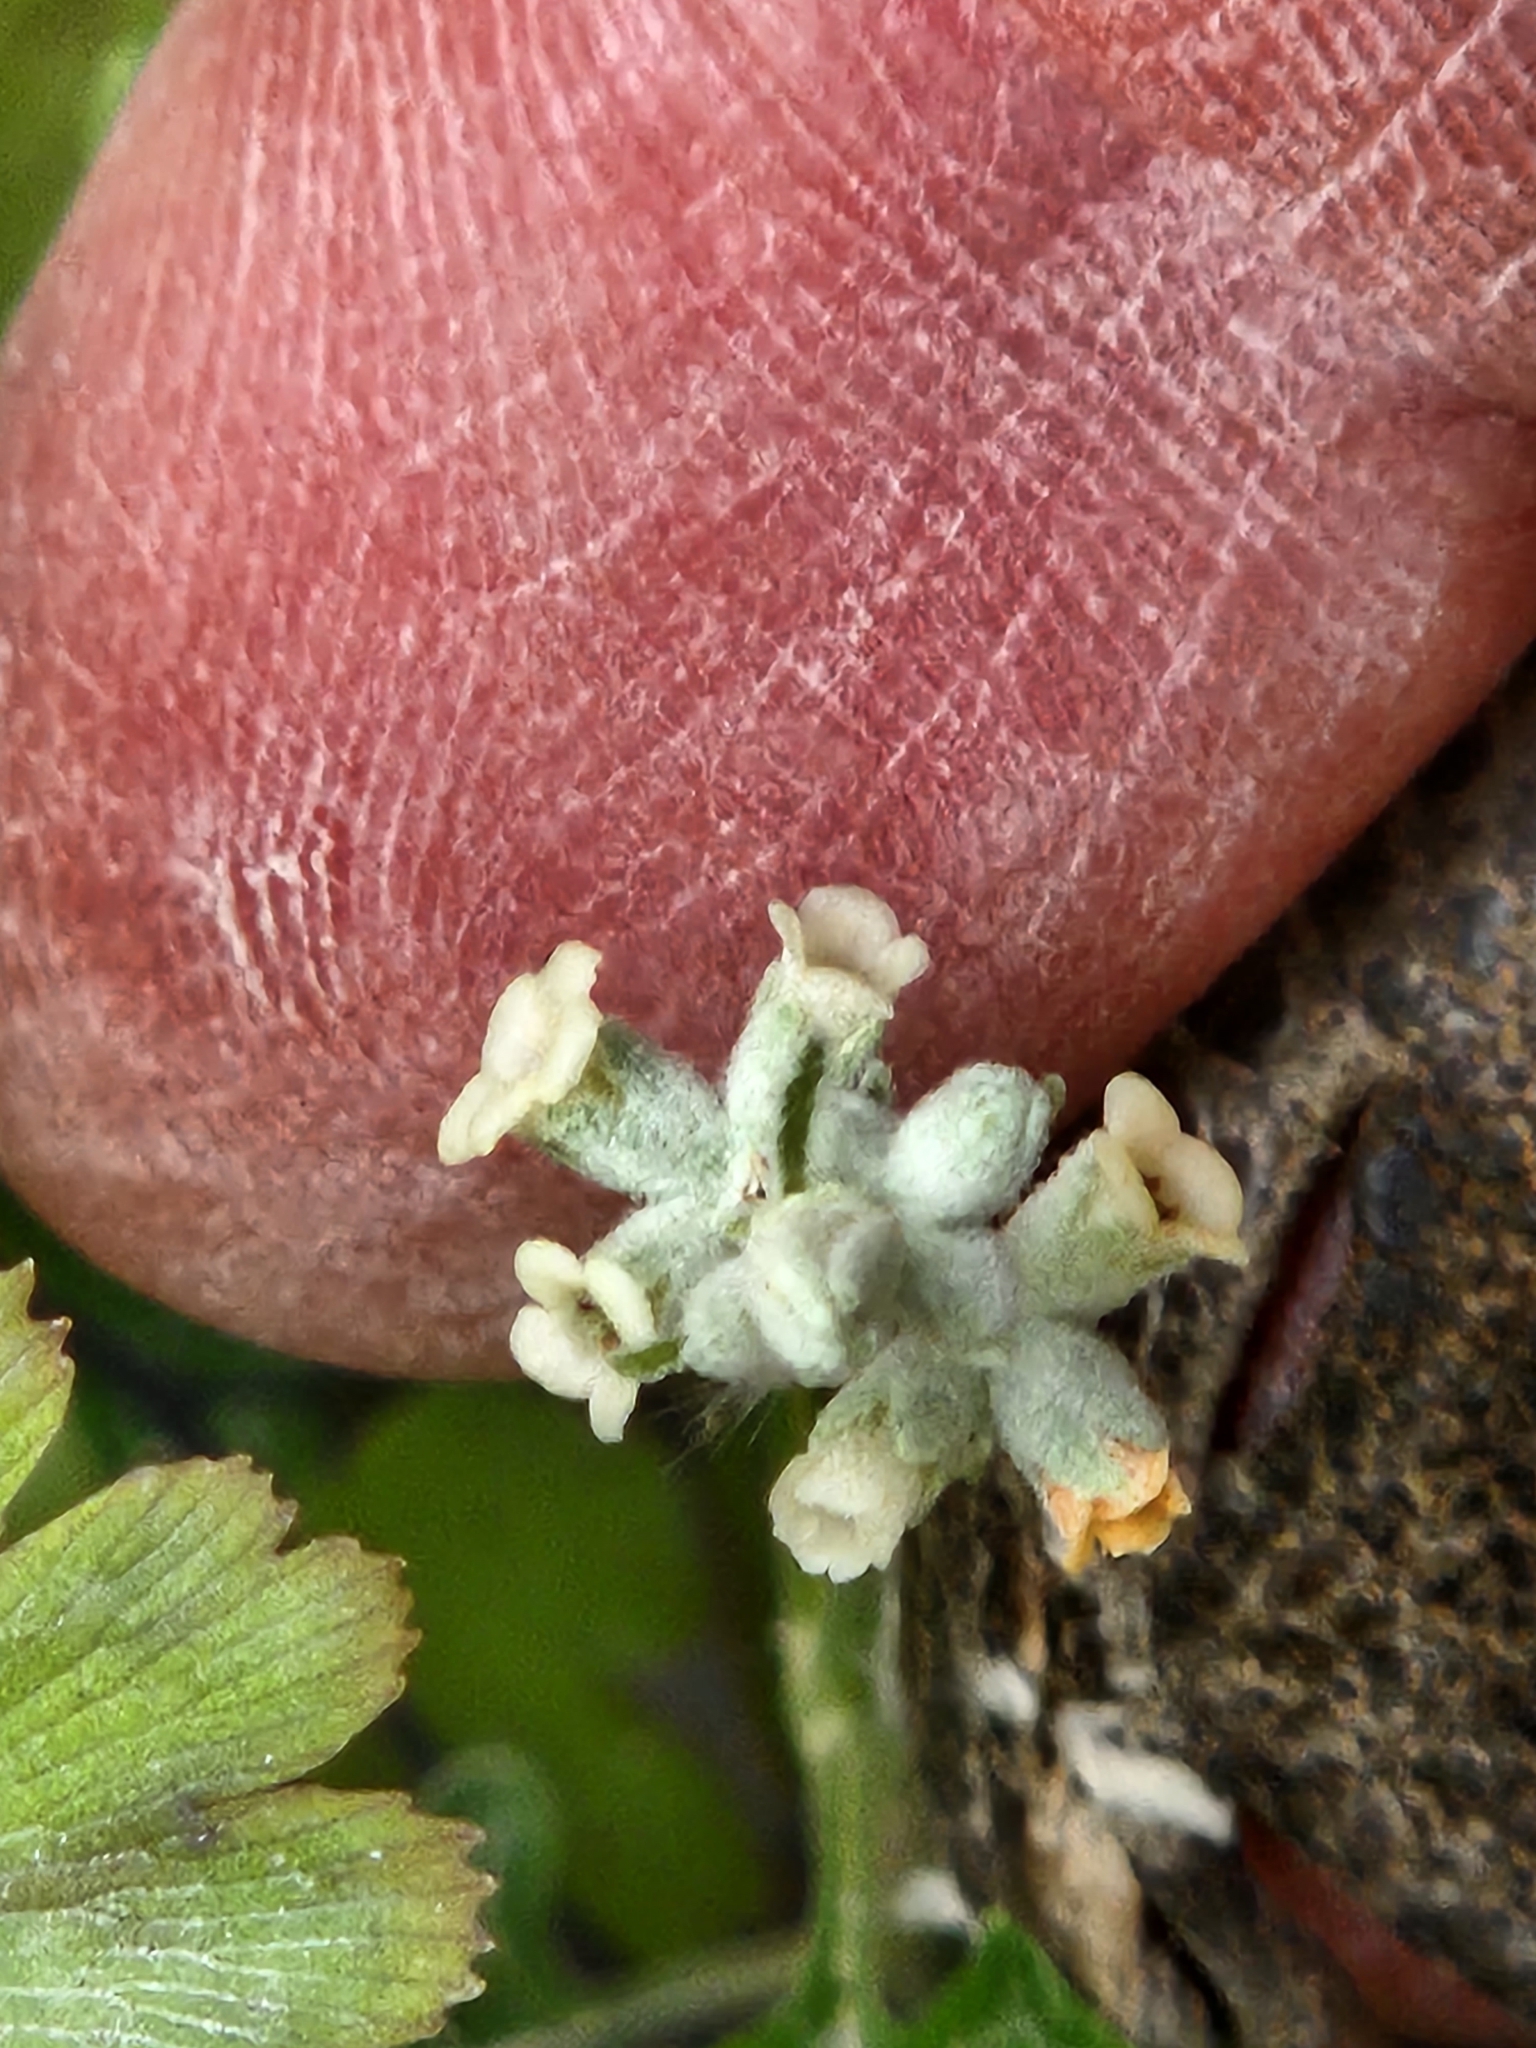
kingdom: Plantae
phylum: Tracheophyta
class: Magnoliopsida
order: Lamiales
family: Scrophulariaceae
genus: Buddleja
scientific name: Buddleja racemosa
